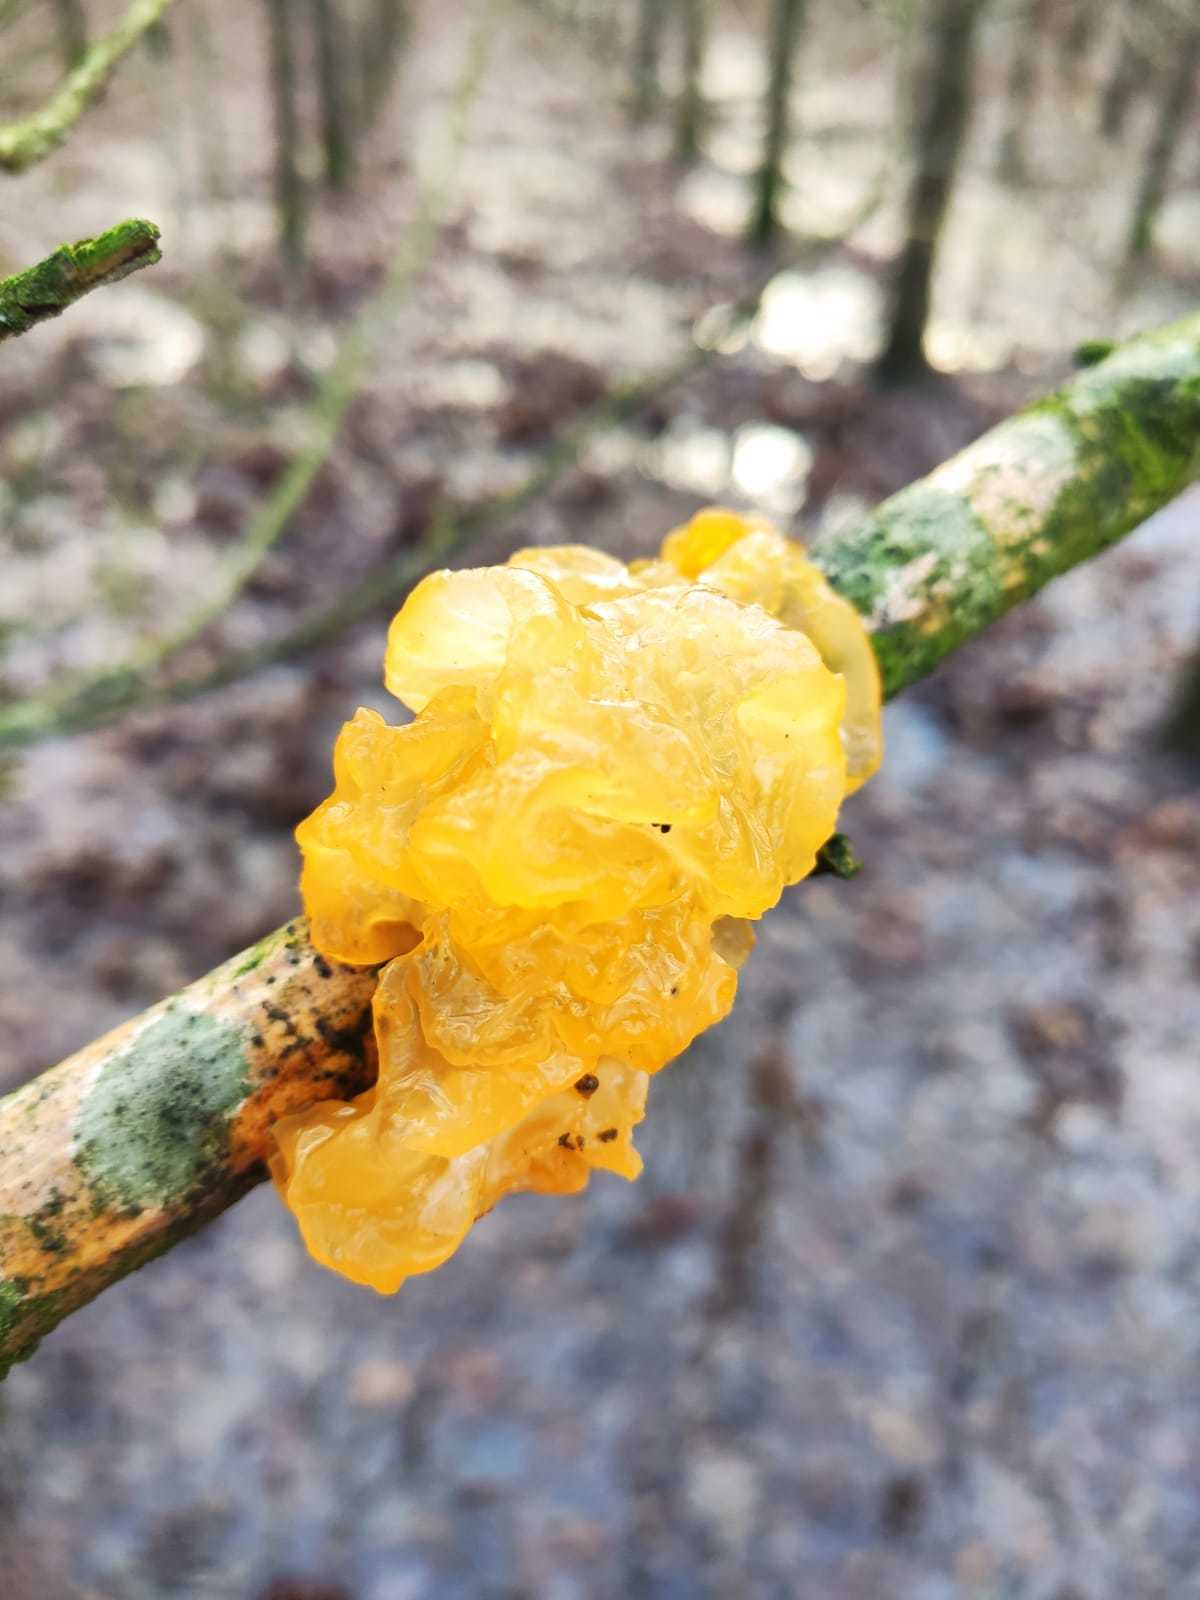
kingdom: Fungi
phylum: Basidiomycota
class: Tremellomycetes
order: Tremellales
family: Tremellaceae
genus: Tremella
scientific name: Tremella mesenterica
